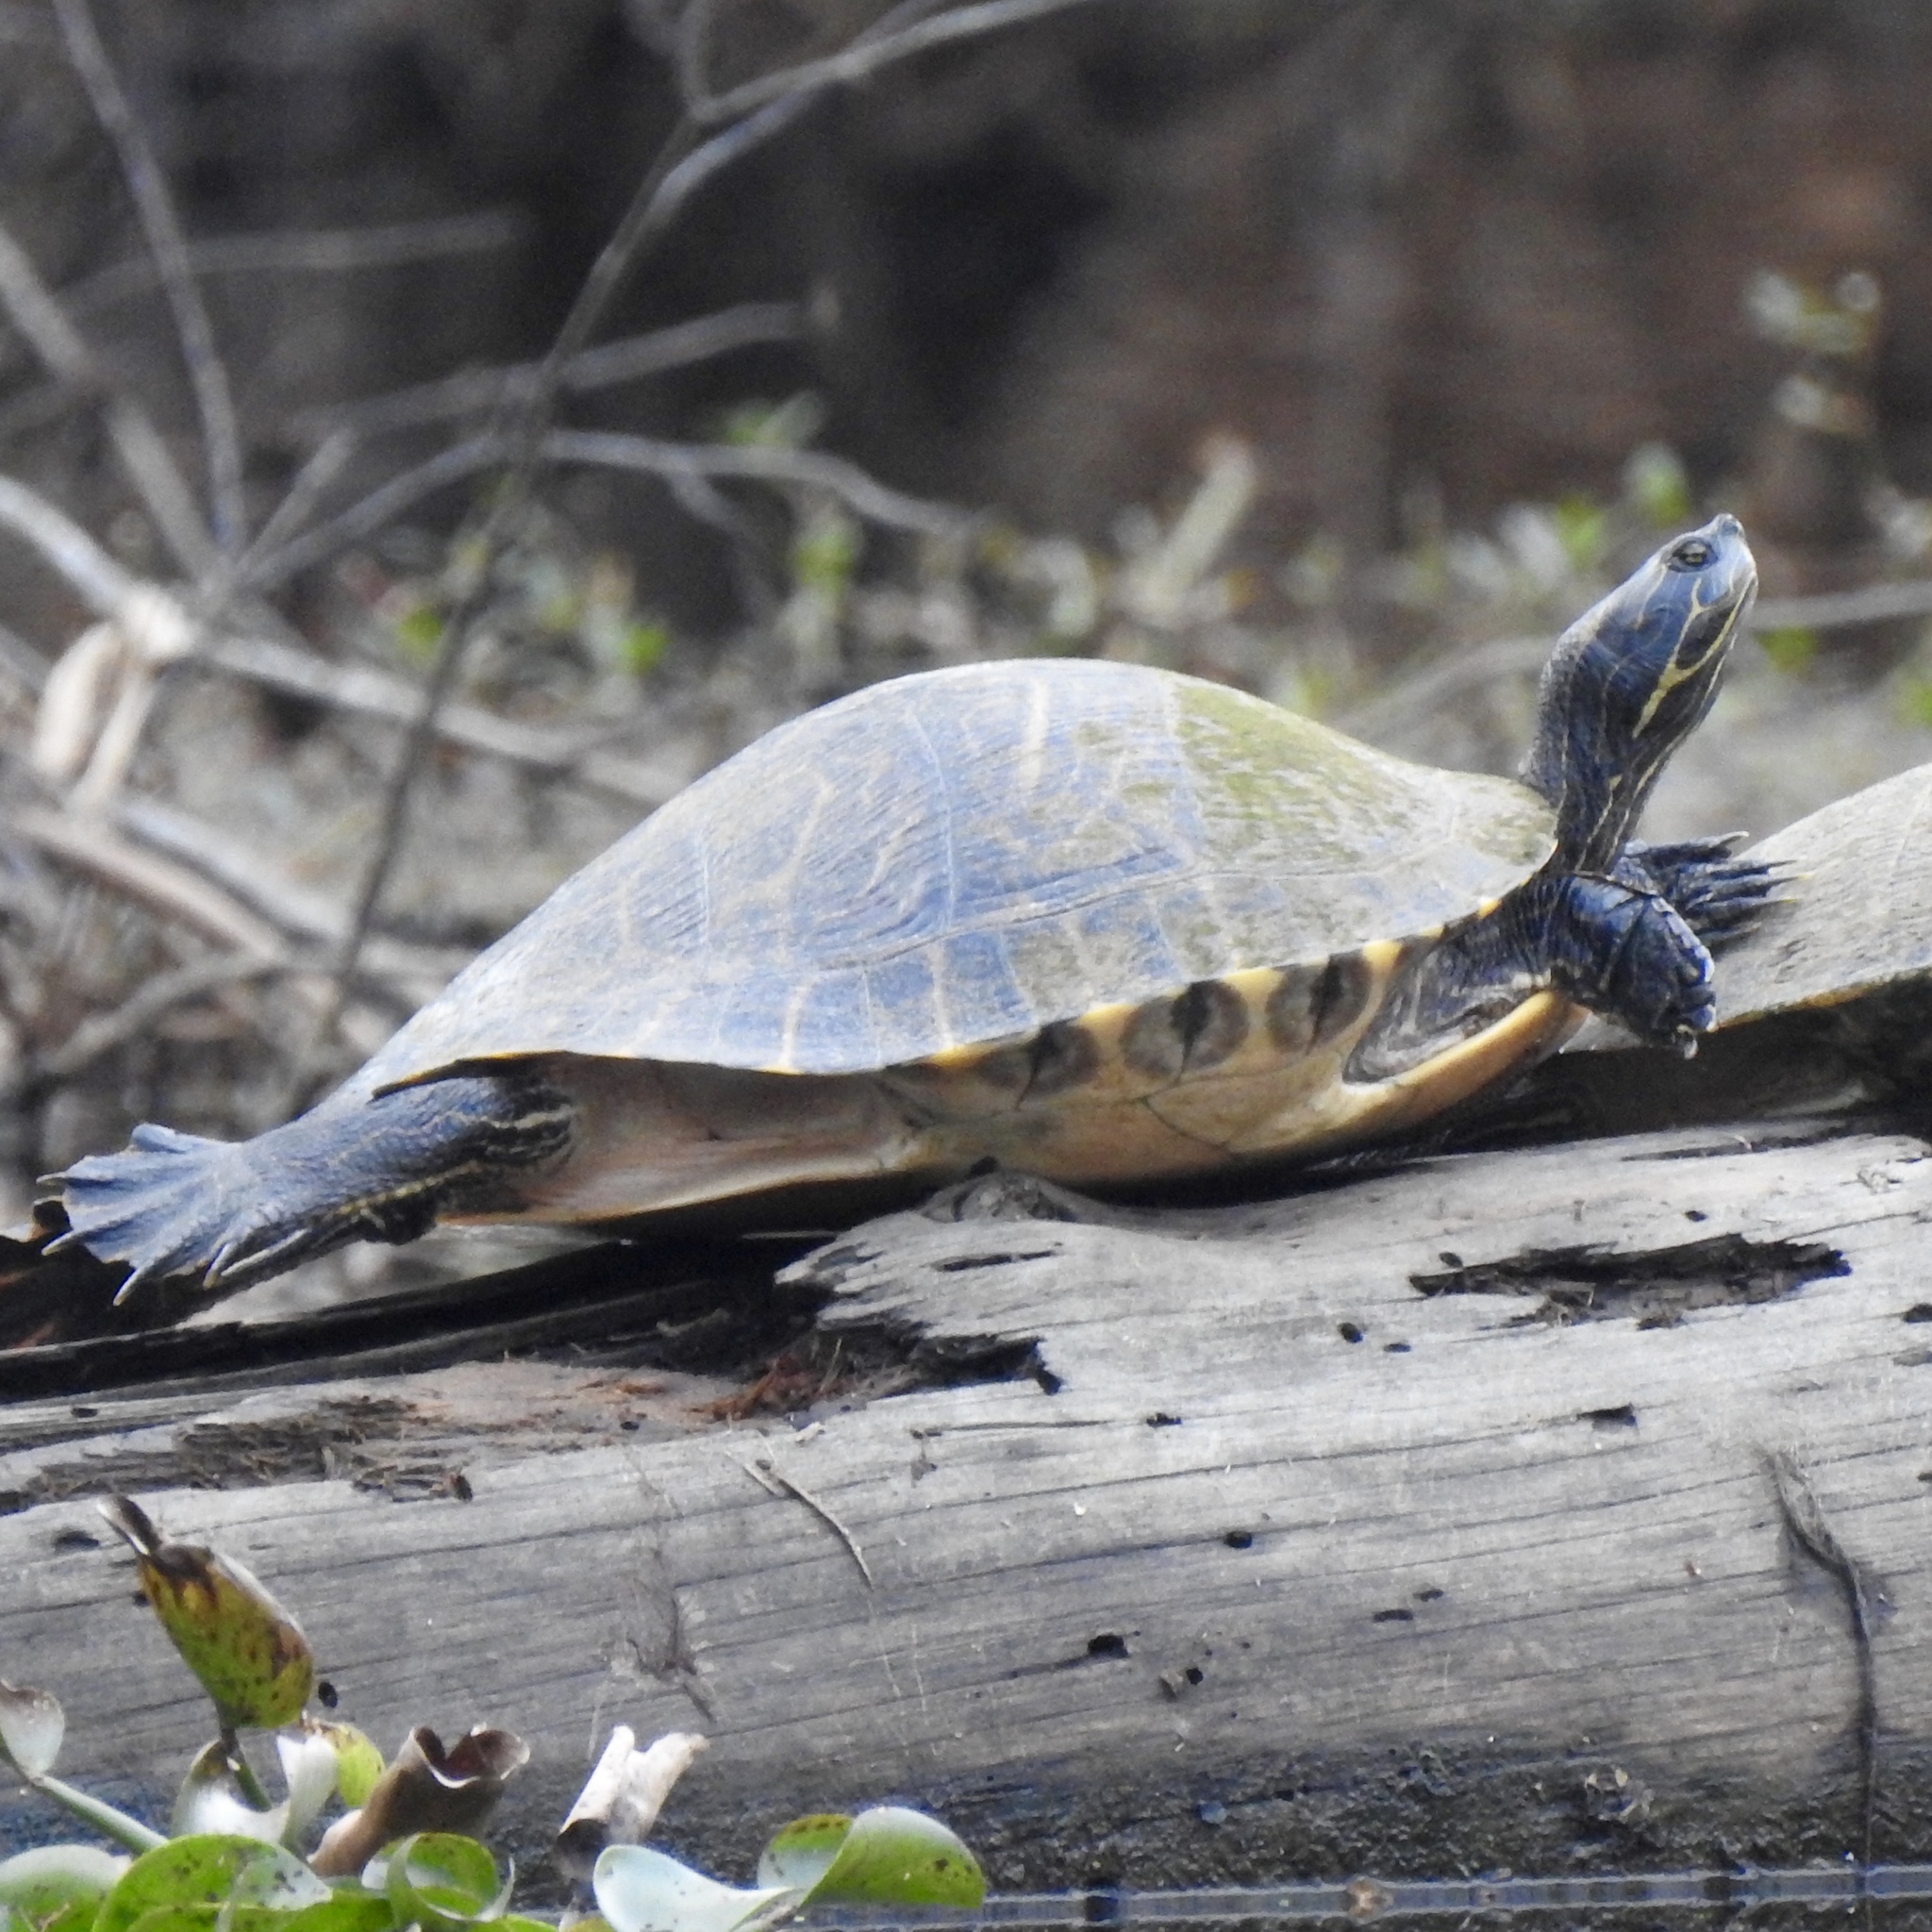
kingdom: Animalia
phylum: Chordata
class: Testudines
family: Emydidae
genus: Pseudemys
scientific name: Pseudemys concinna
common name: Eastern river cooter
